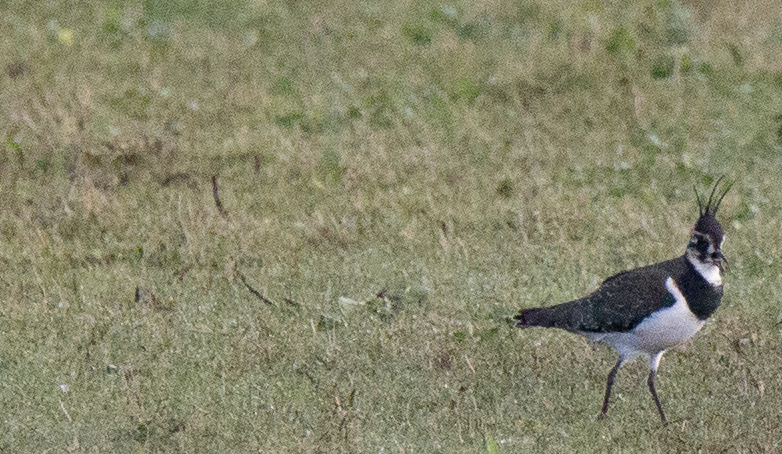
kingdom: Animalia
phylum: Chordata
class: Aves
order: Charadriiformes
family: Charadriidae
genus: Vanellus
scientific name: Vanellus vanellus
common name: Northern lapwing
